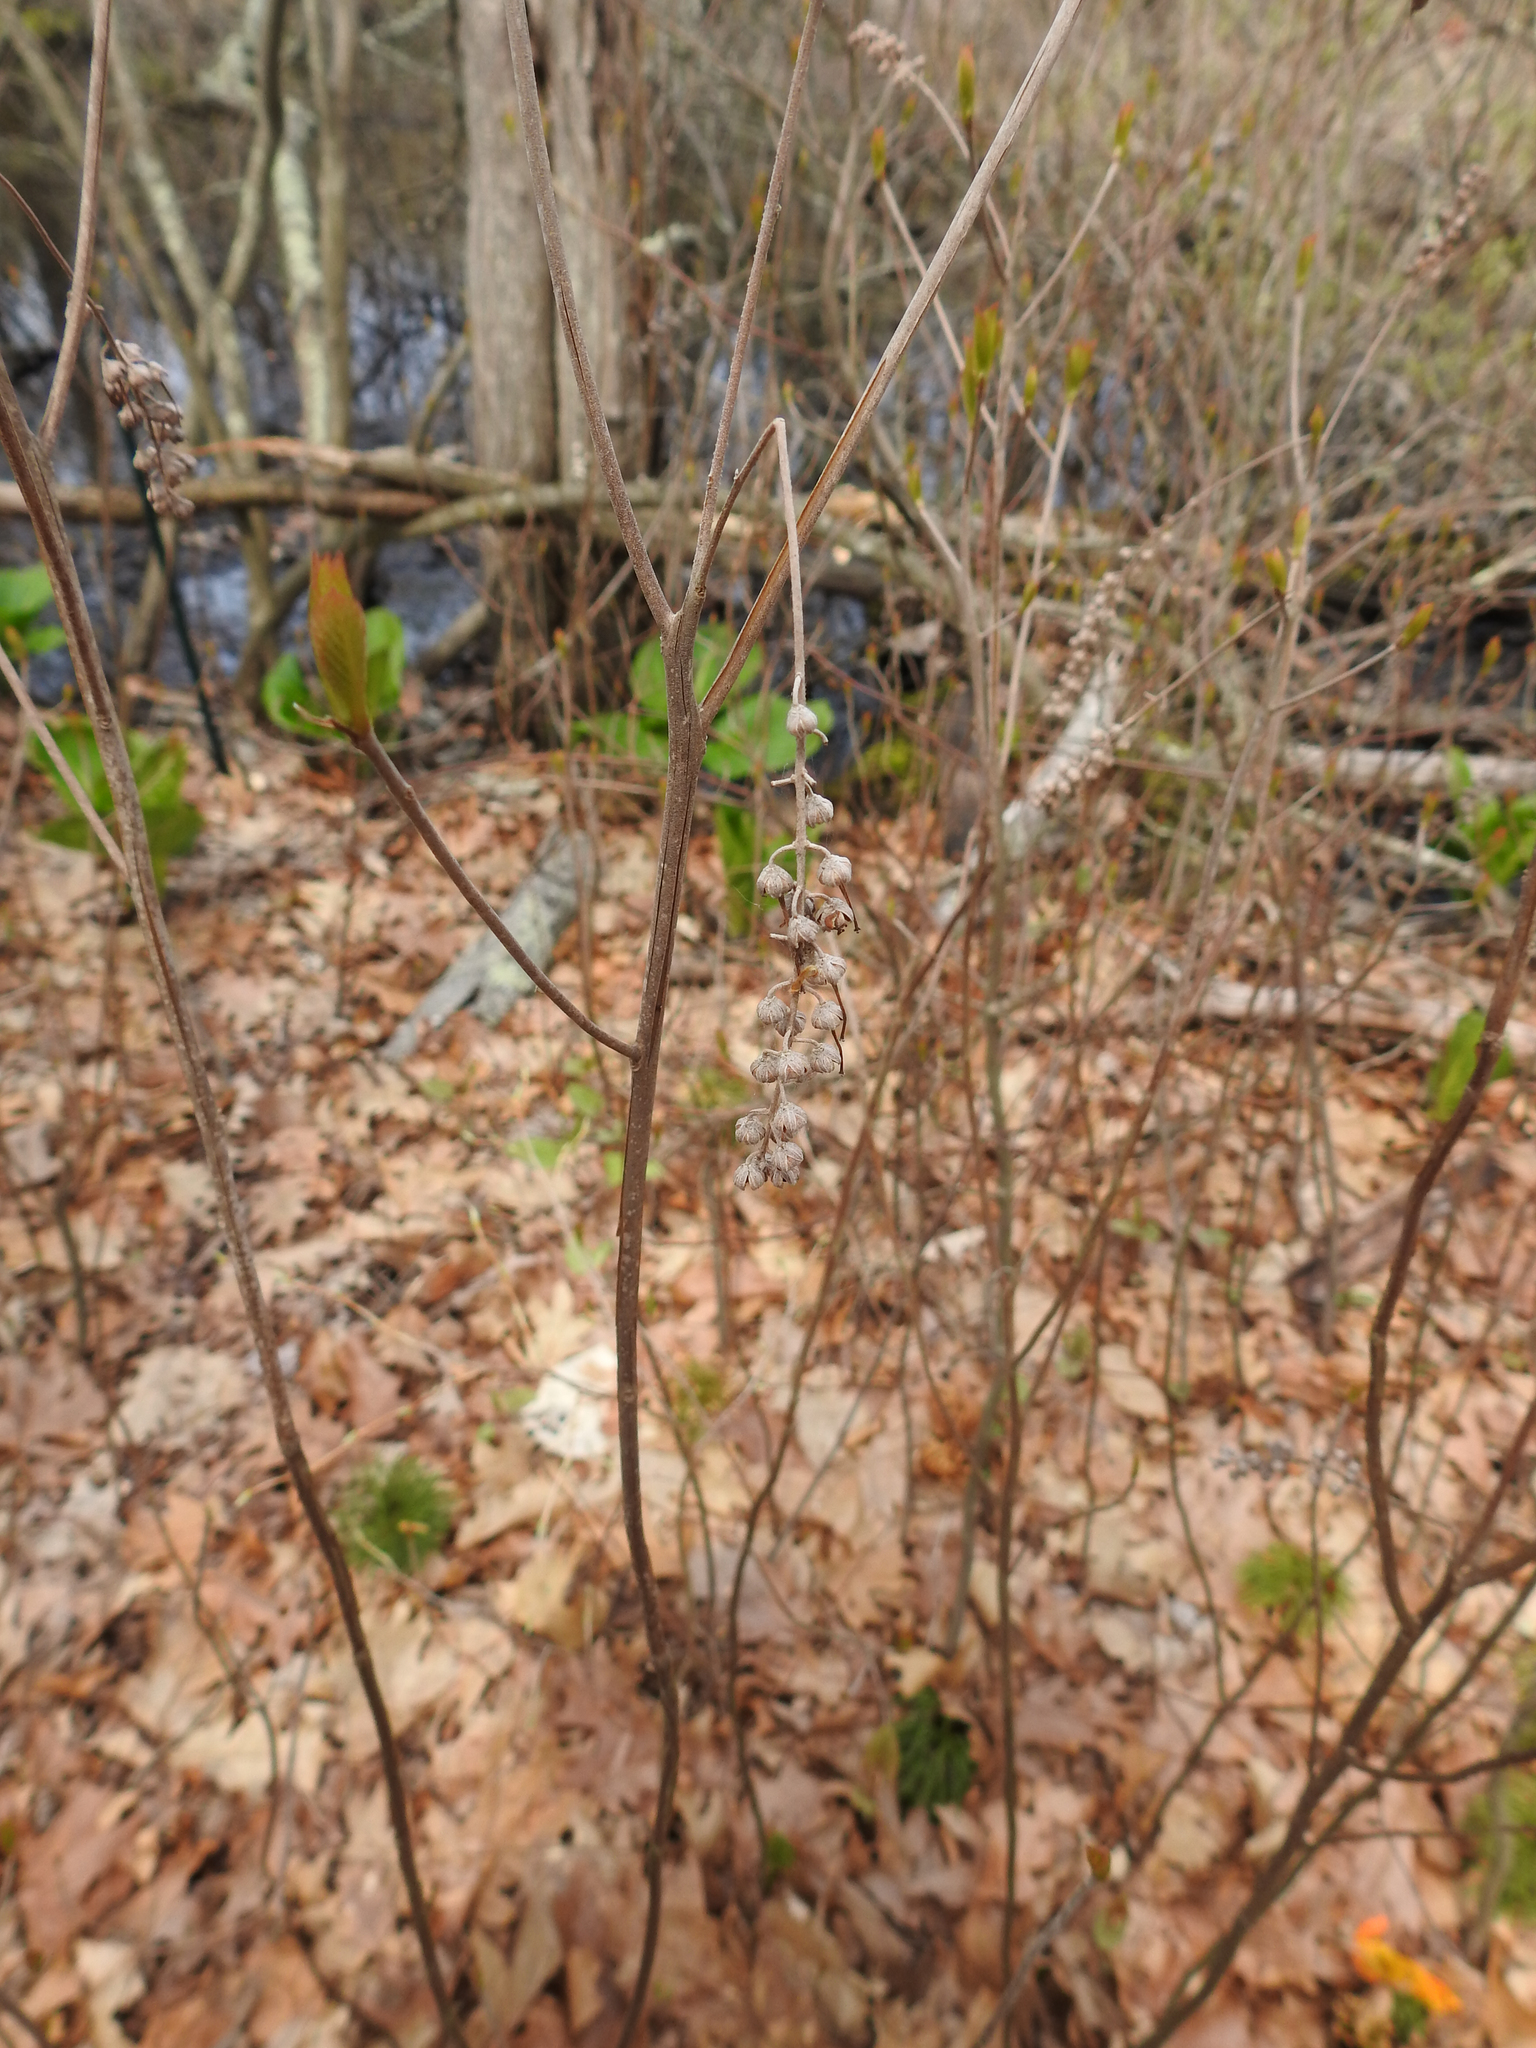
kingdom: Plantae
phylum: Tracheophyta
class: Magnoliopsida
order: Ericales
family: Clethraceae
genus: Clethra
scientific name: Clethra alnifolia
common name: Sweet pepperbush
